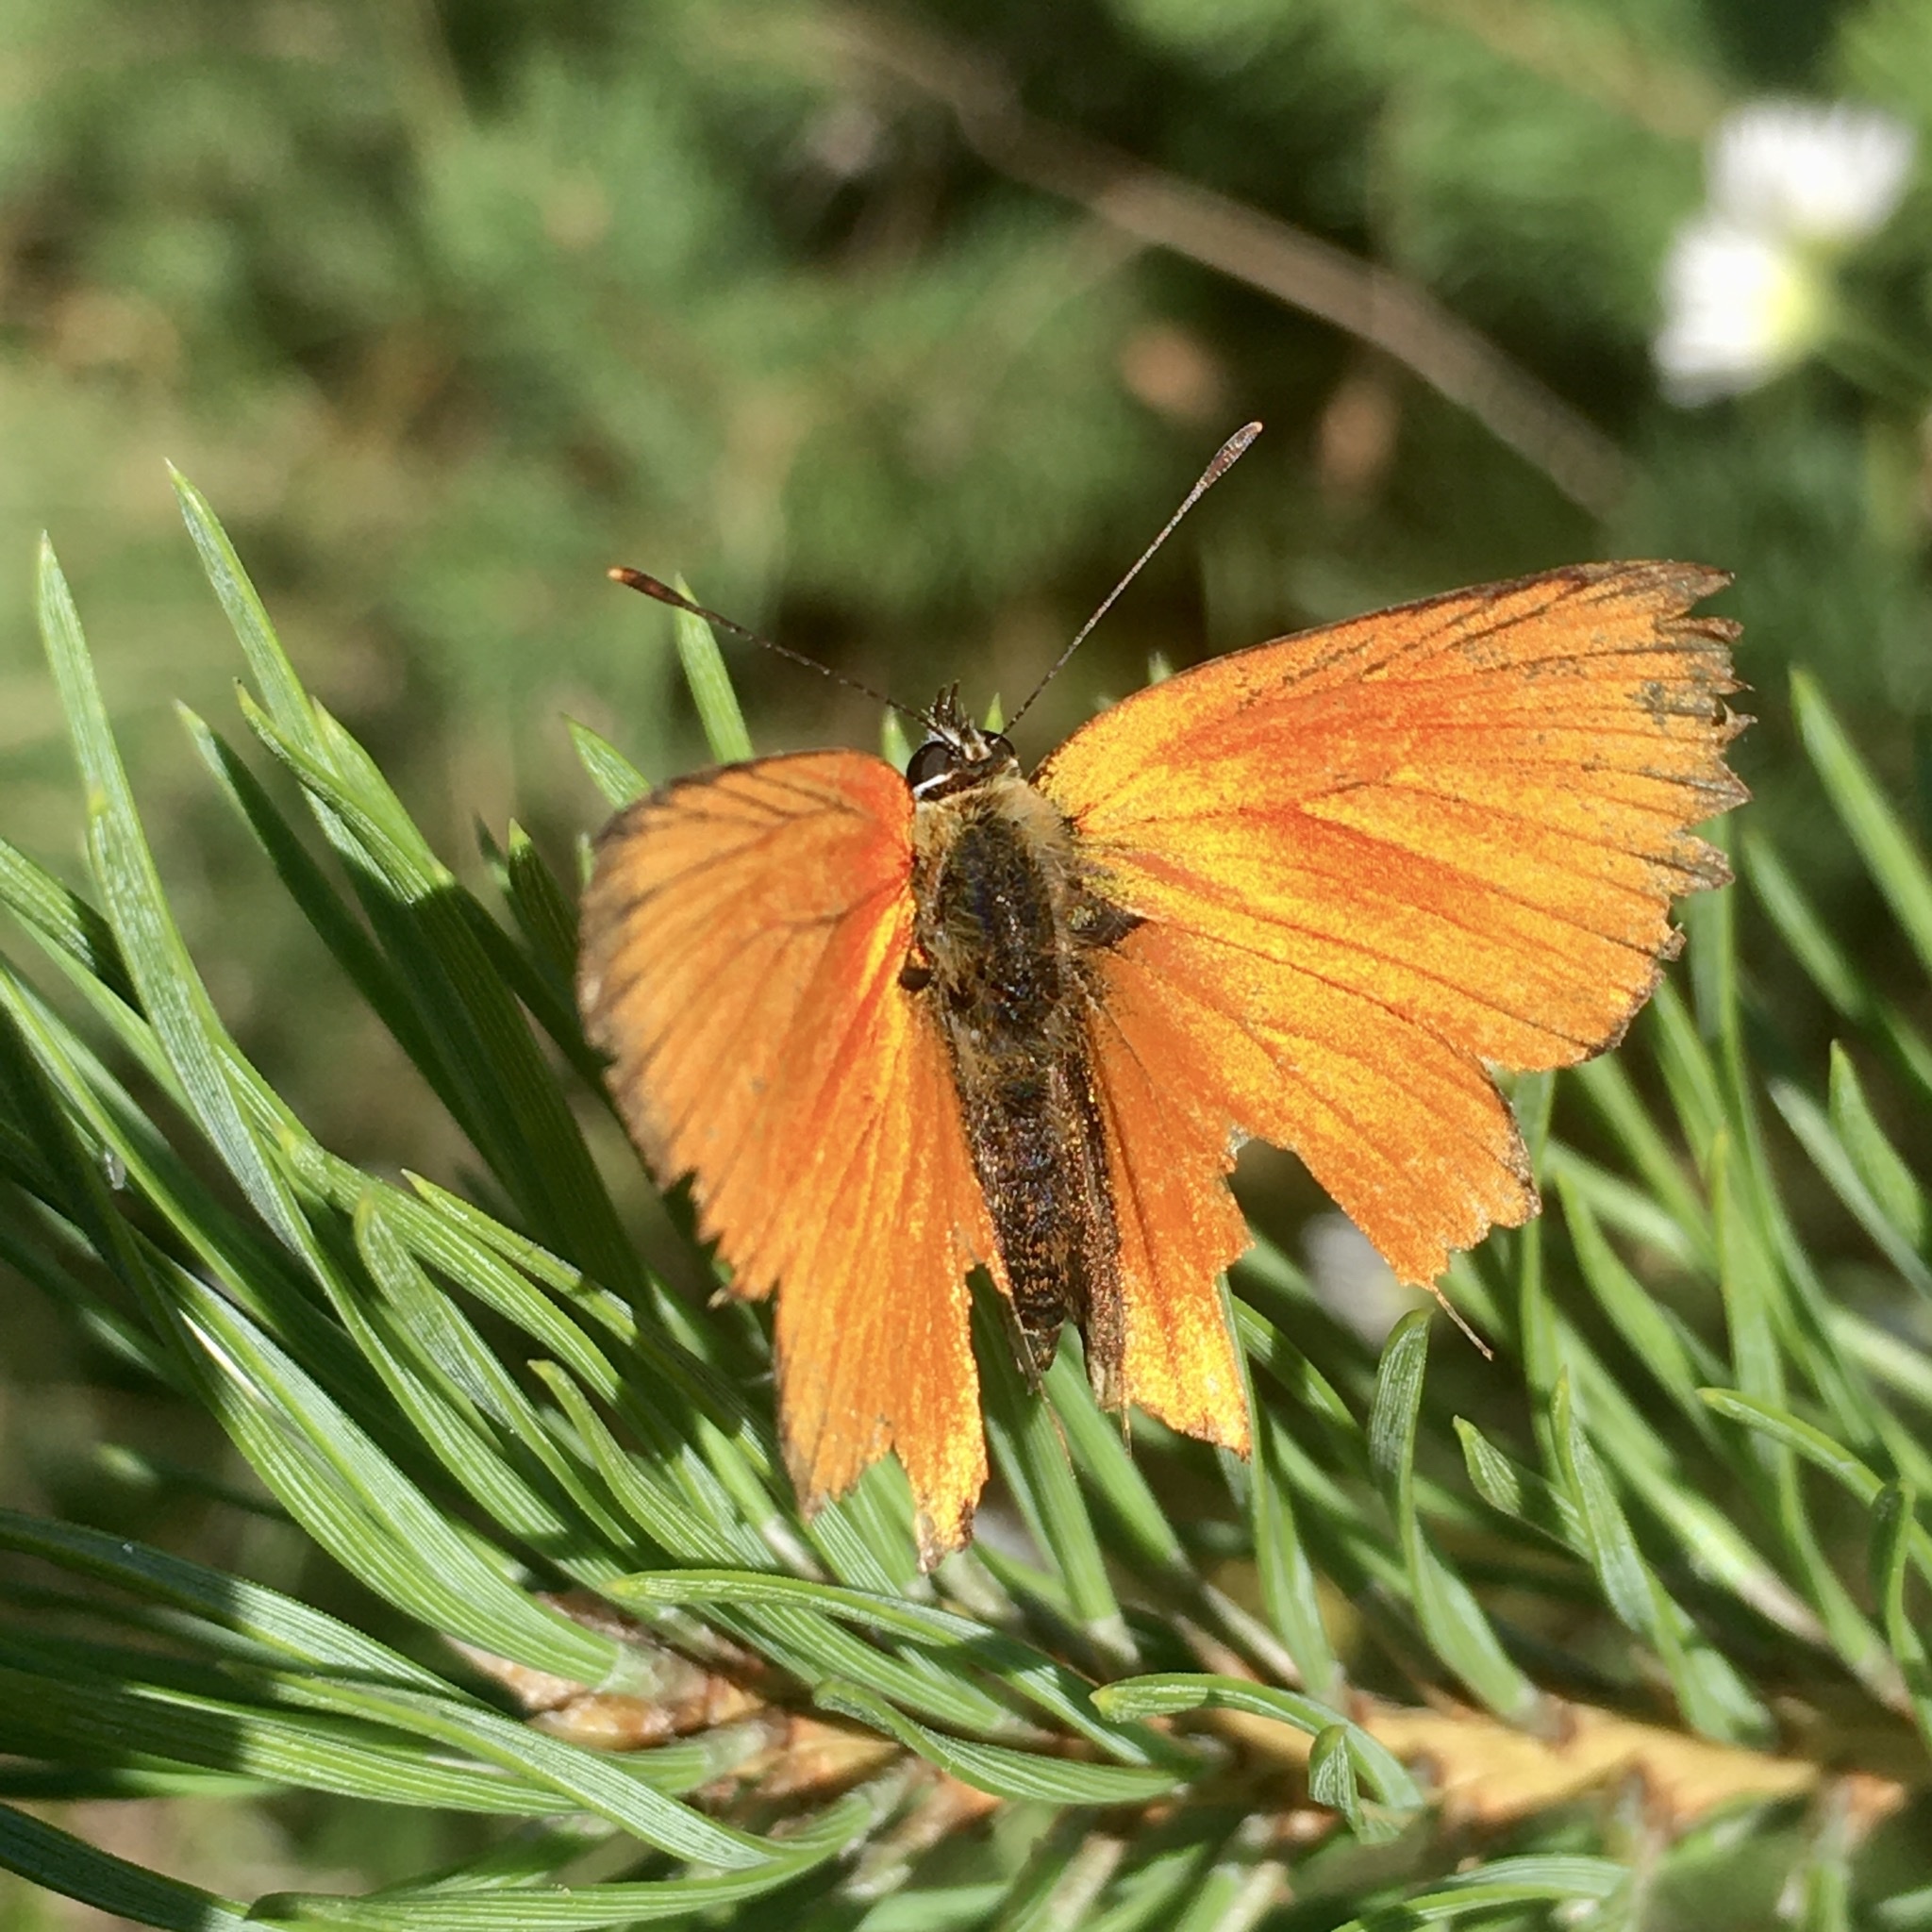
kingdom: Animalia
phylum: Arthropoda
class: Insecta
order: Lepidoptera
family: Lycaenidae
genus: Lycaena
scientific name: Lycaena virgaureae
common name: Scarce copper
